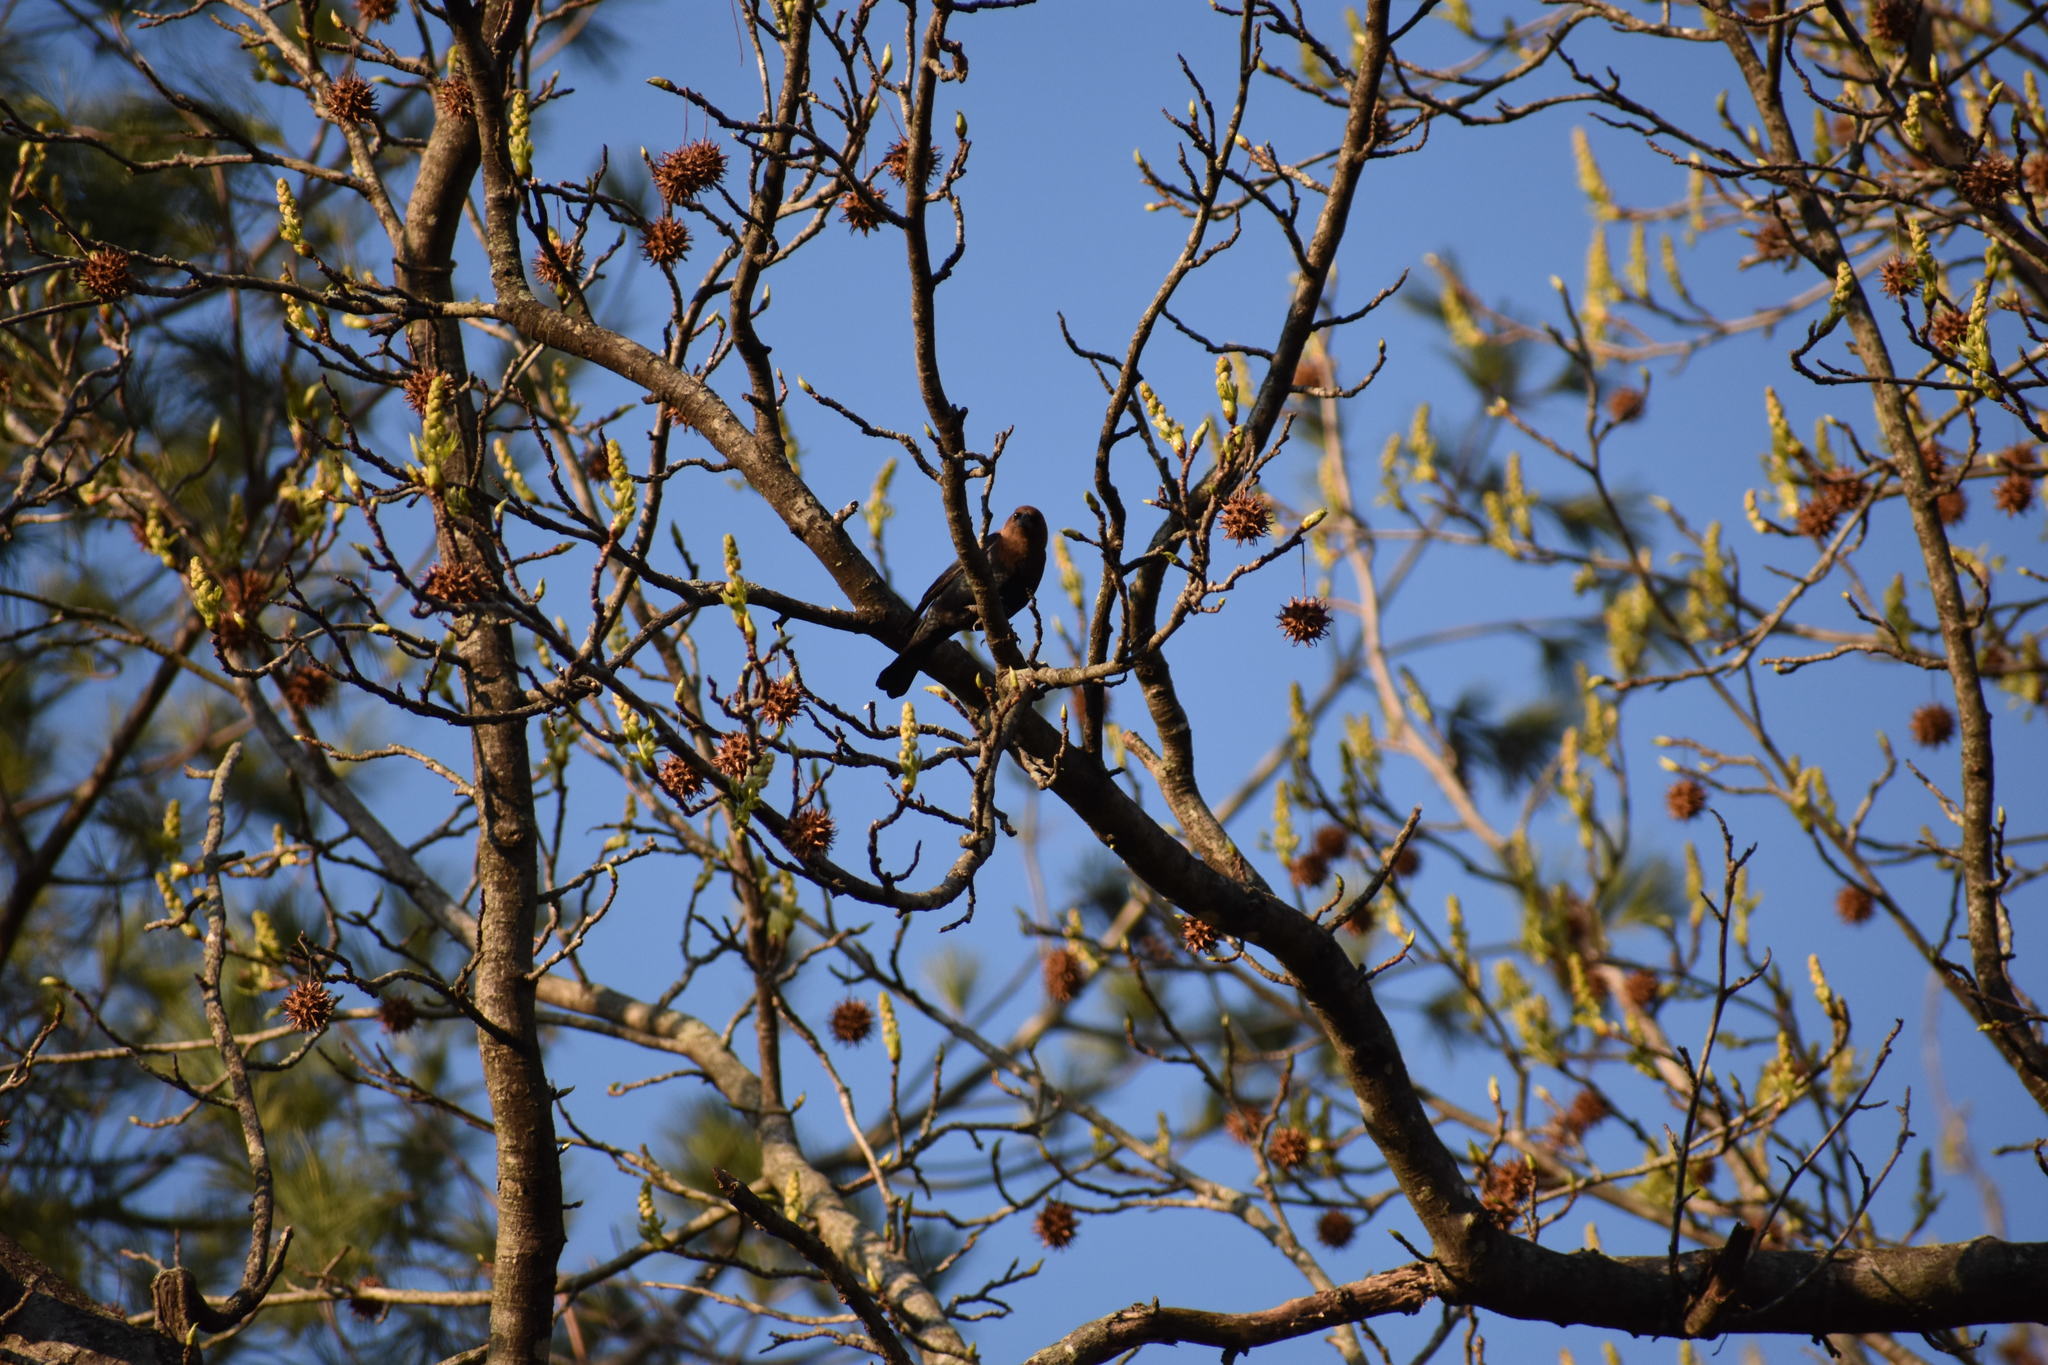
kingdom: Animalia
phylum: Chordata
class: Aves
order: Passeriformes
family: Icteridae
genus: Molothrus
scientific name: Molothrus ater
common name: Brown-headed cowbird
